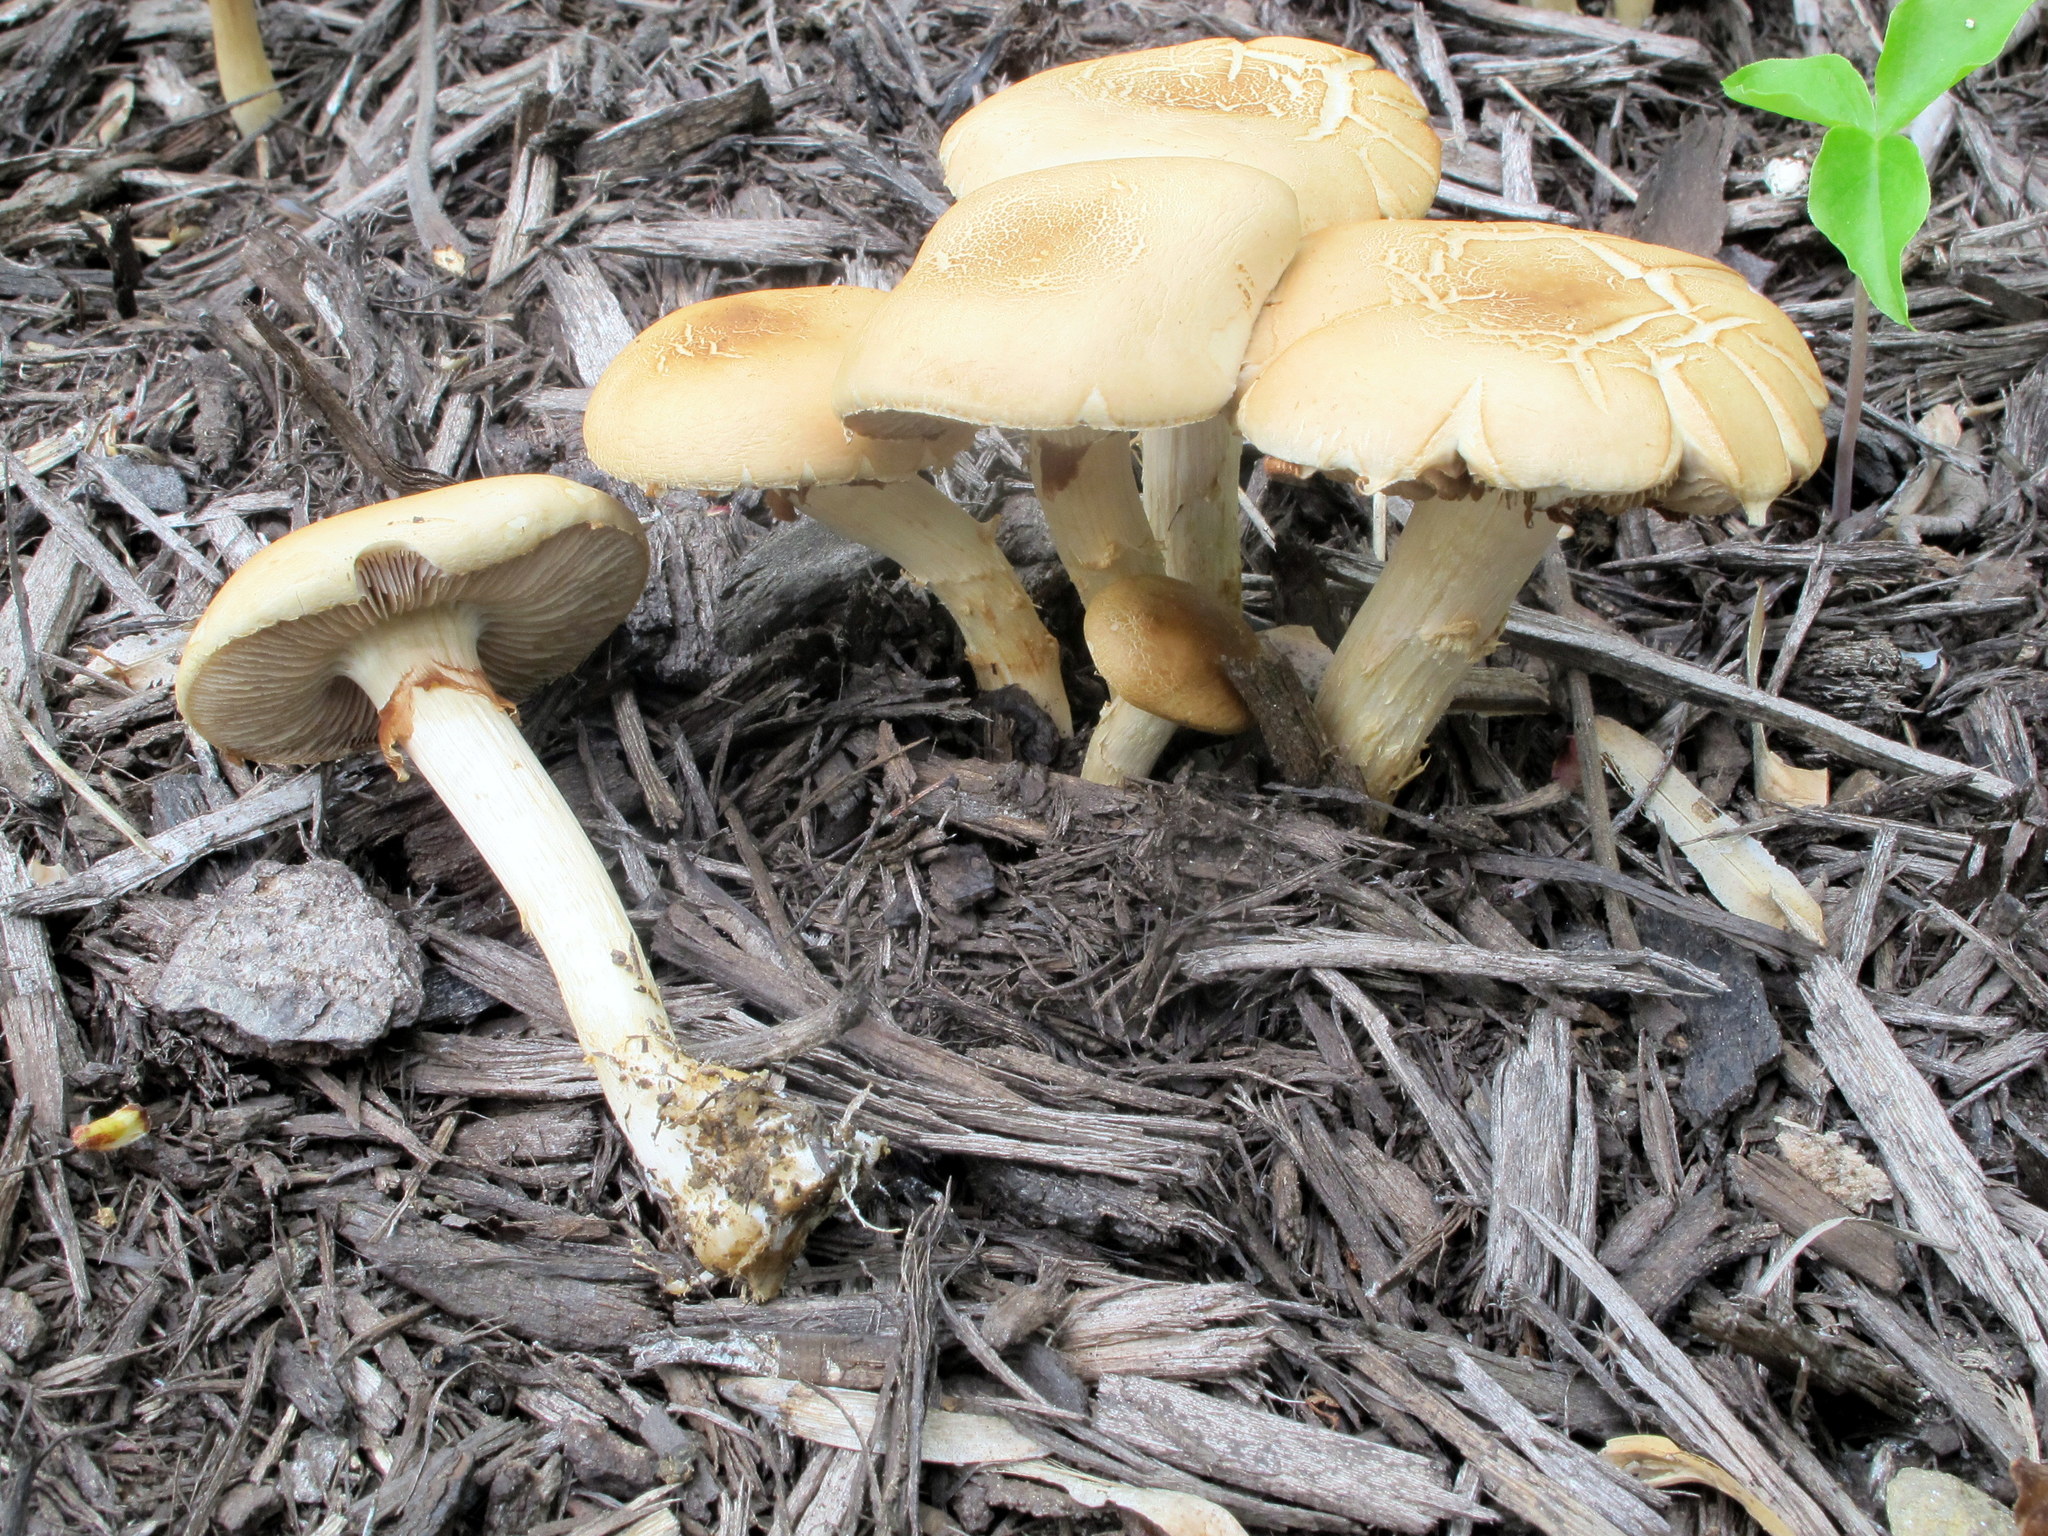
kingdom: Fungi
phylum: Basidiomycota
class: Agaricomycetes
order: Agaricales
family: Strophariaceae
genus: Agrocybe
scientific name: Agrocybe praecox
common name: Spring fieldcap
